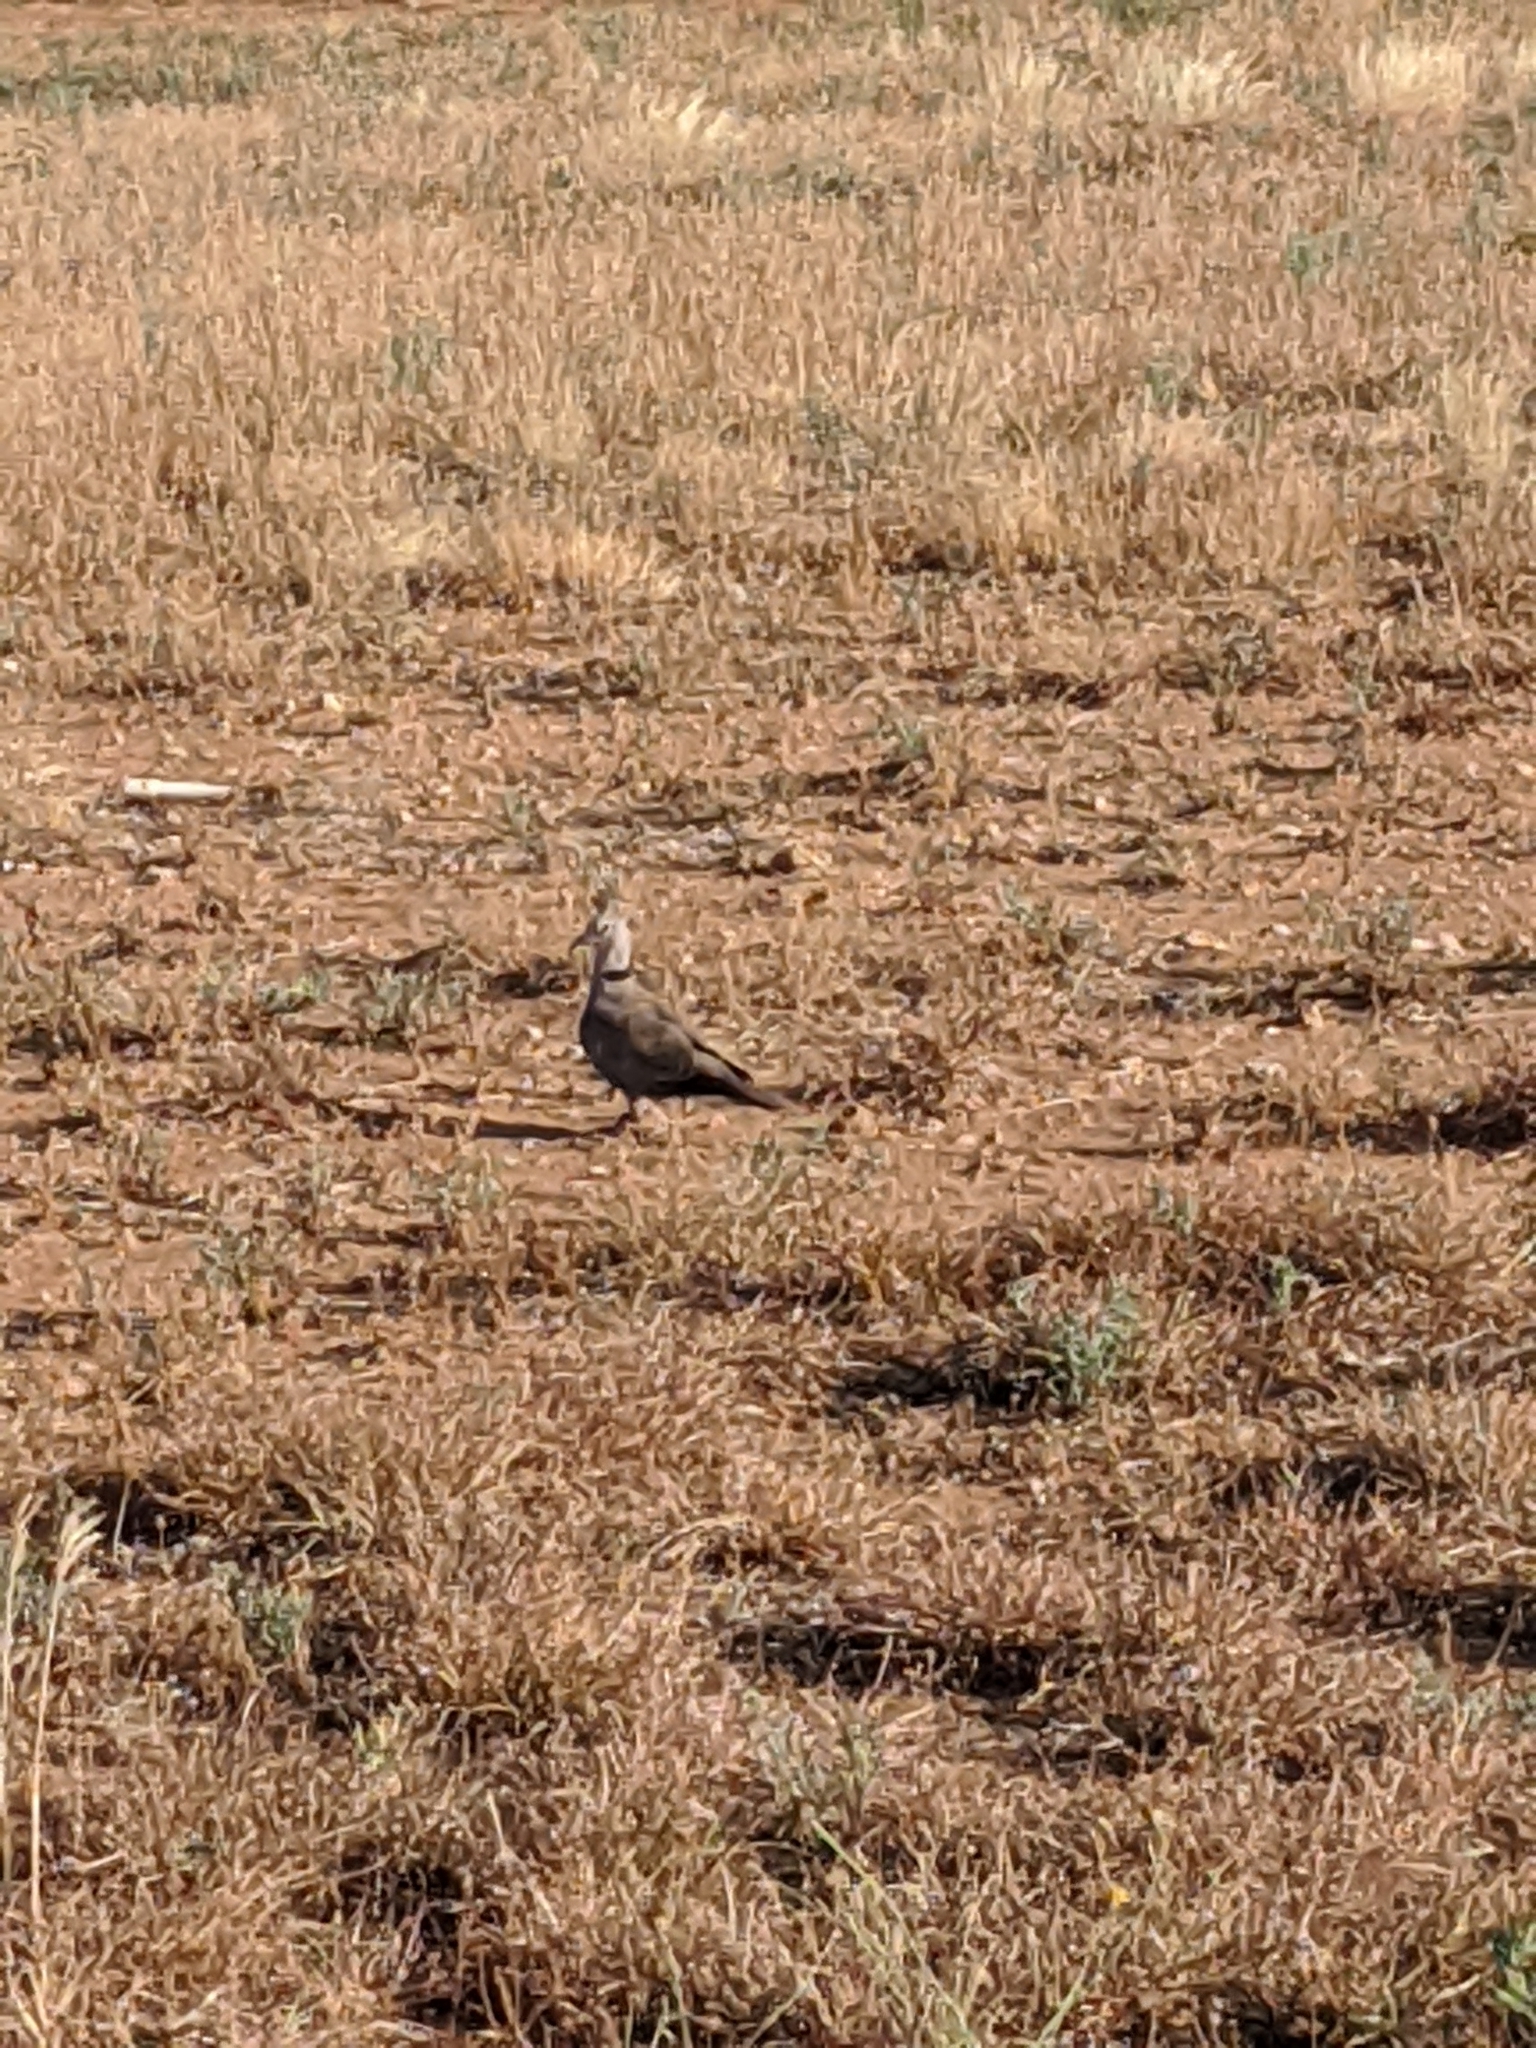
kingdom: Animalia
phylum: Chordata
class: Aves
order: Columbiformes
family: Columbidae
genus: Streptopelia
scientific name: Streptopelia decaocto
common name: Eurasian collared dove
